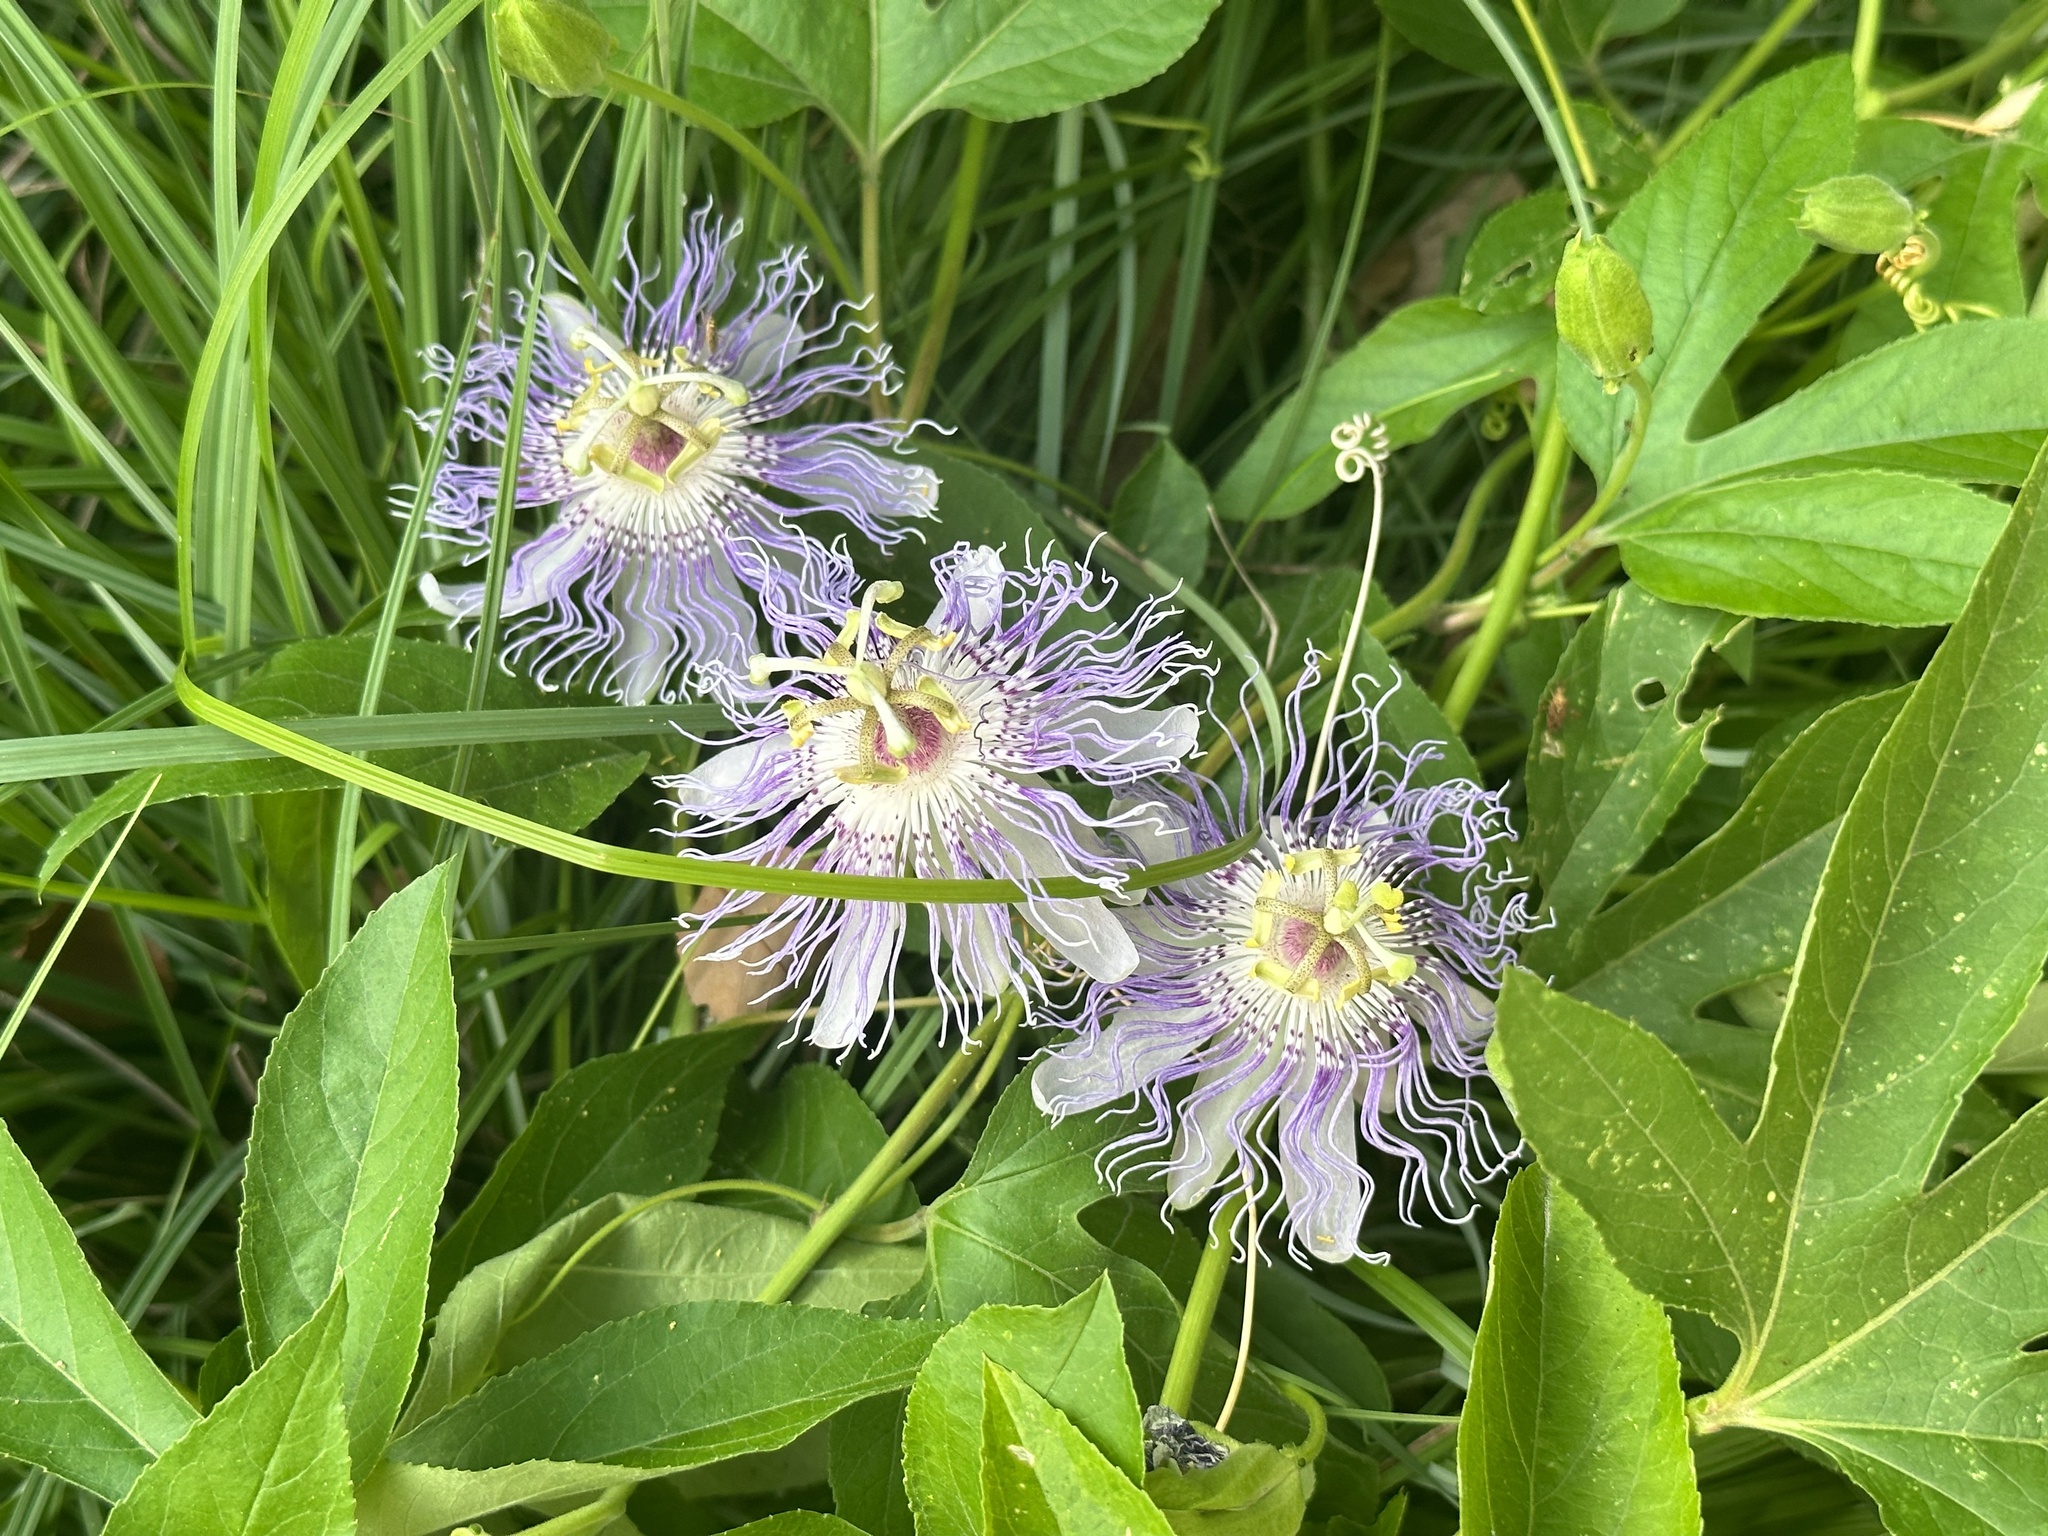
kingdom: Plantae
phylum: Tracheophyta
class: Magnoliopsida
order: Malpighiales
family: Passifloraceae
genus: Passiflora
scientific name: Passiflora incarnata
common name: Apricot-vine
